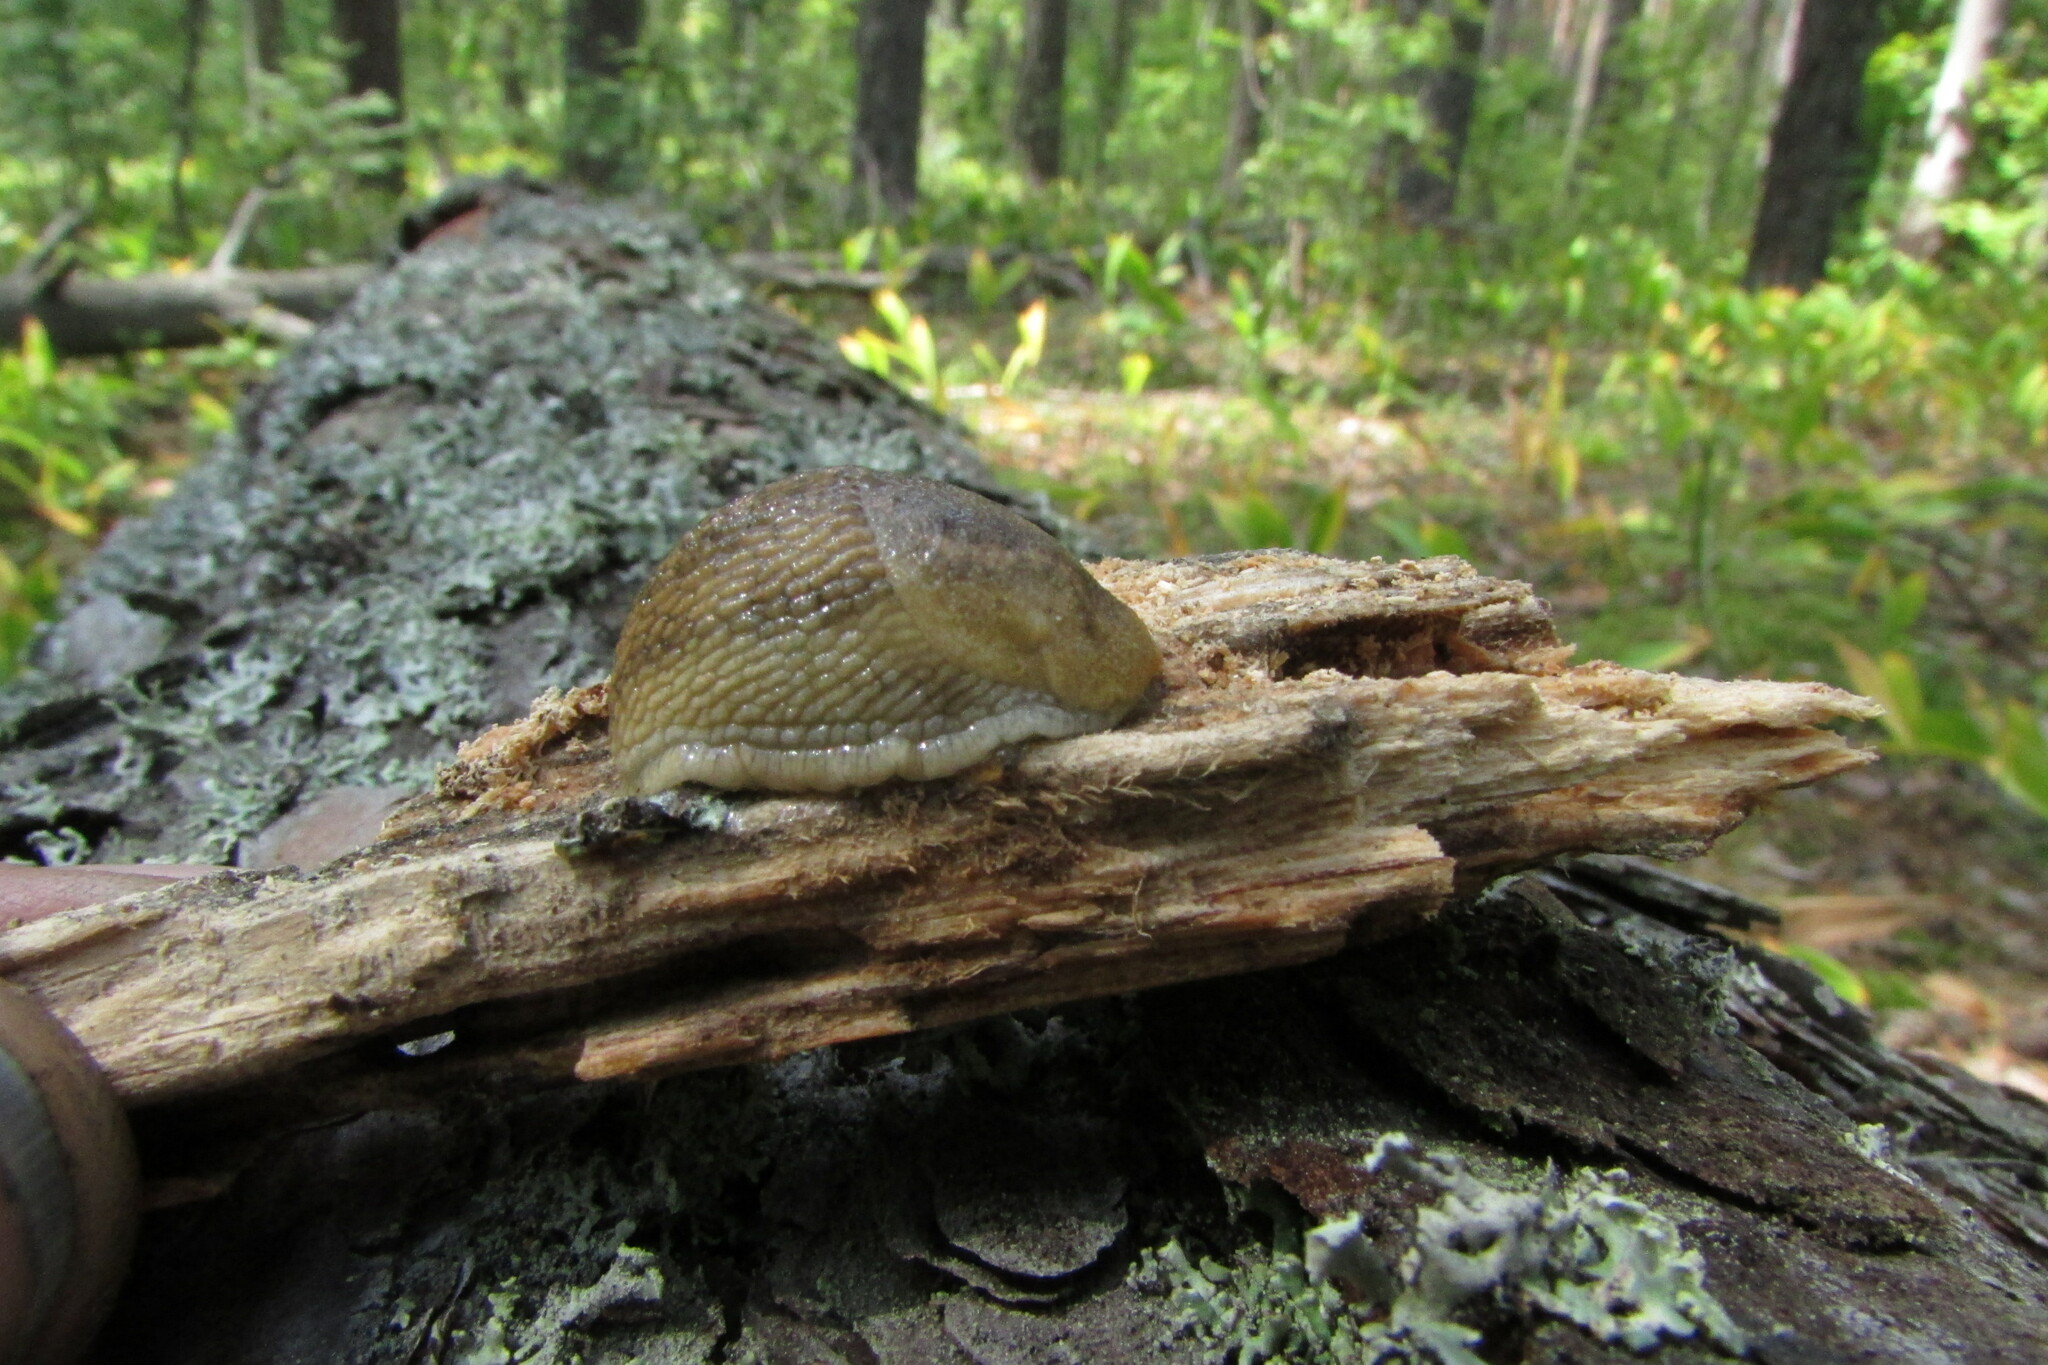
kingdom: Animalia
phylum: Mollusca
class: Gastropoda
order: Stylommatophora
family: Arionidae
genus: Arion
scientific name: Arion fuscus
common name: Northern dusky slug
